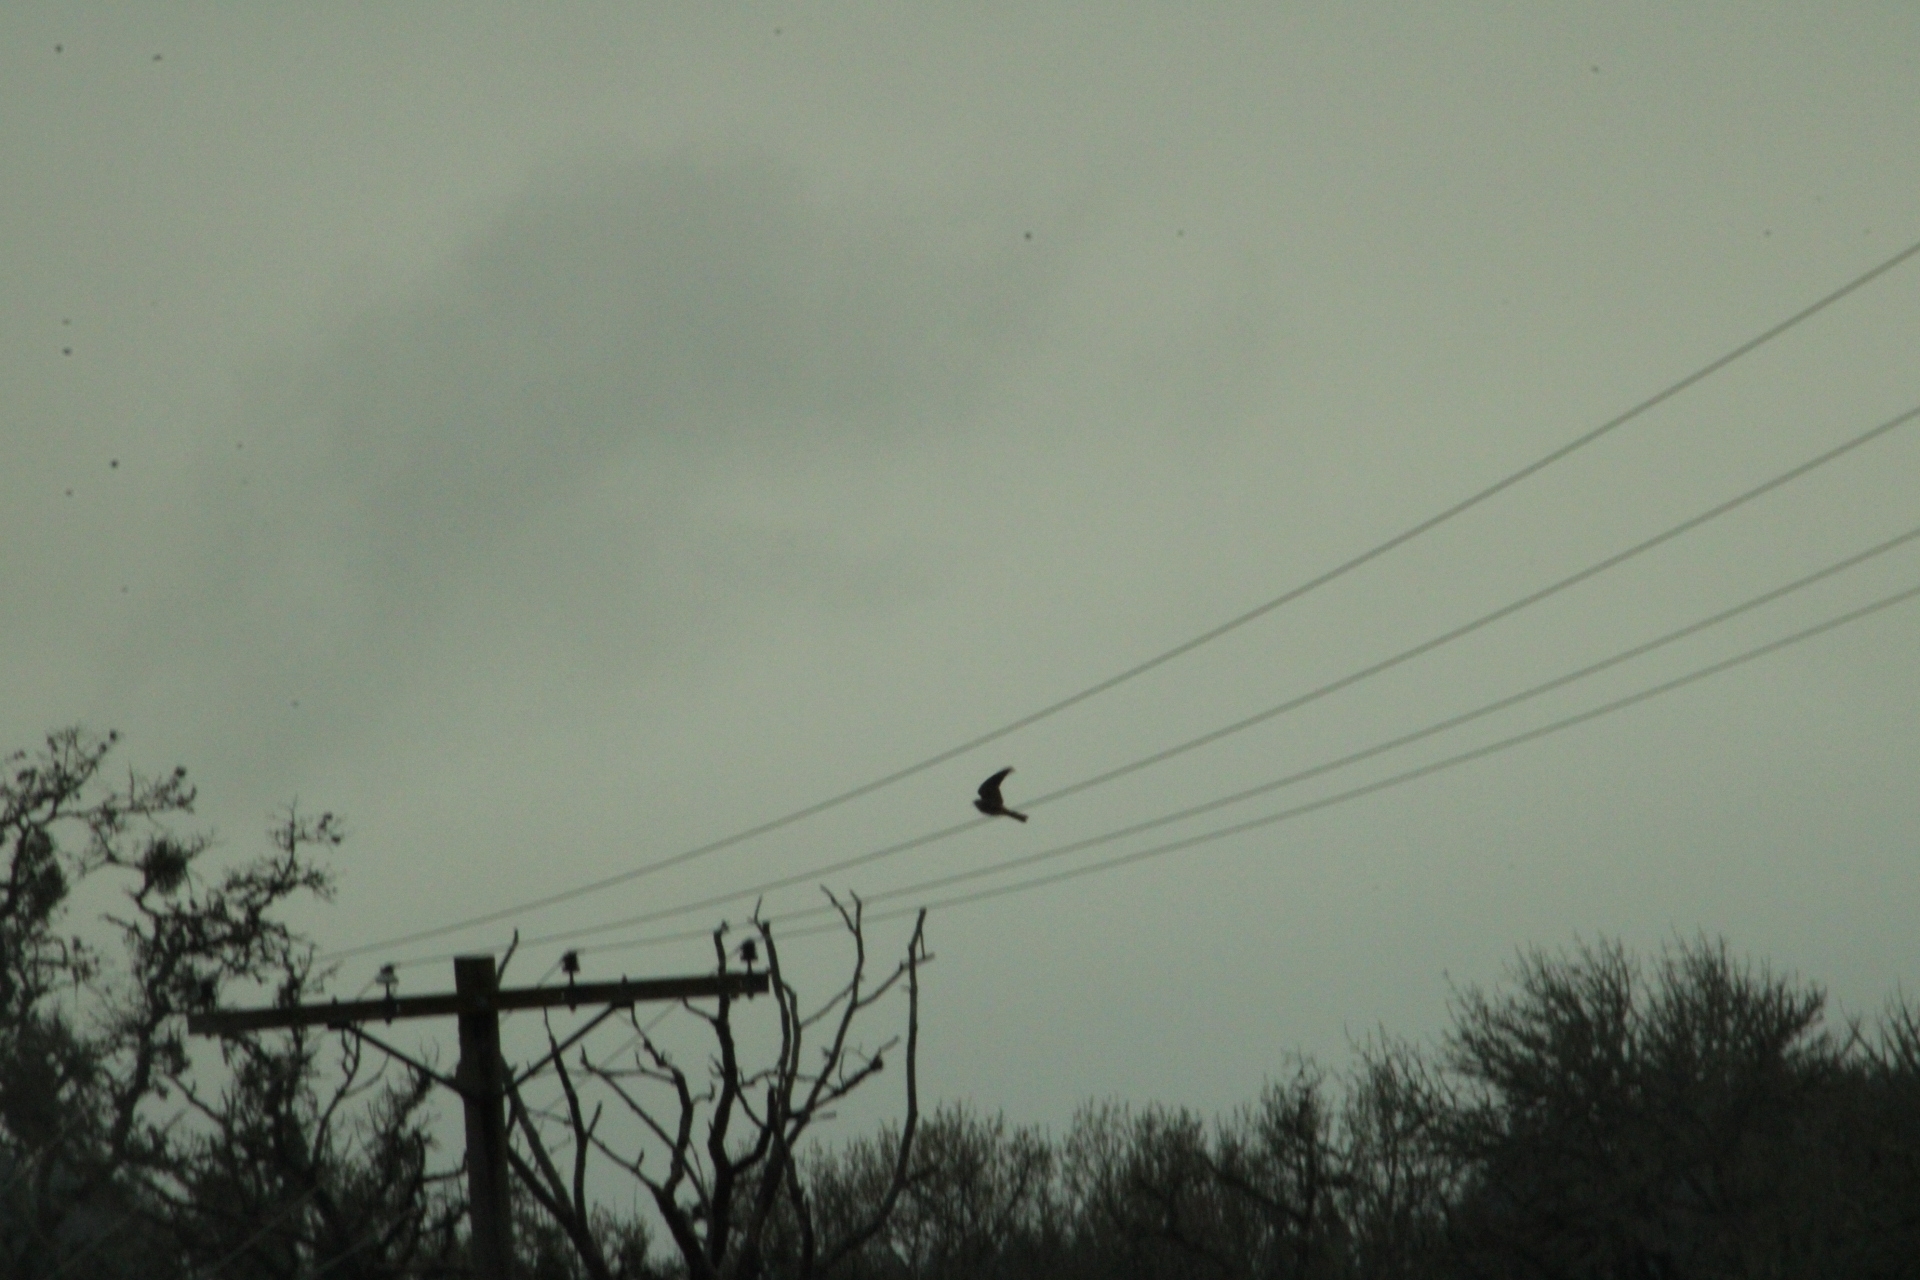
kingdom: Animalia
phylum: Chordata
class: Aves
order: Falconiformes
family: Falconidae
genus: Falco
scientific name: Falco sparverius
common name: American kestrel
